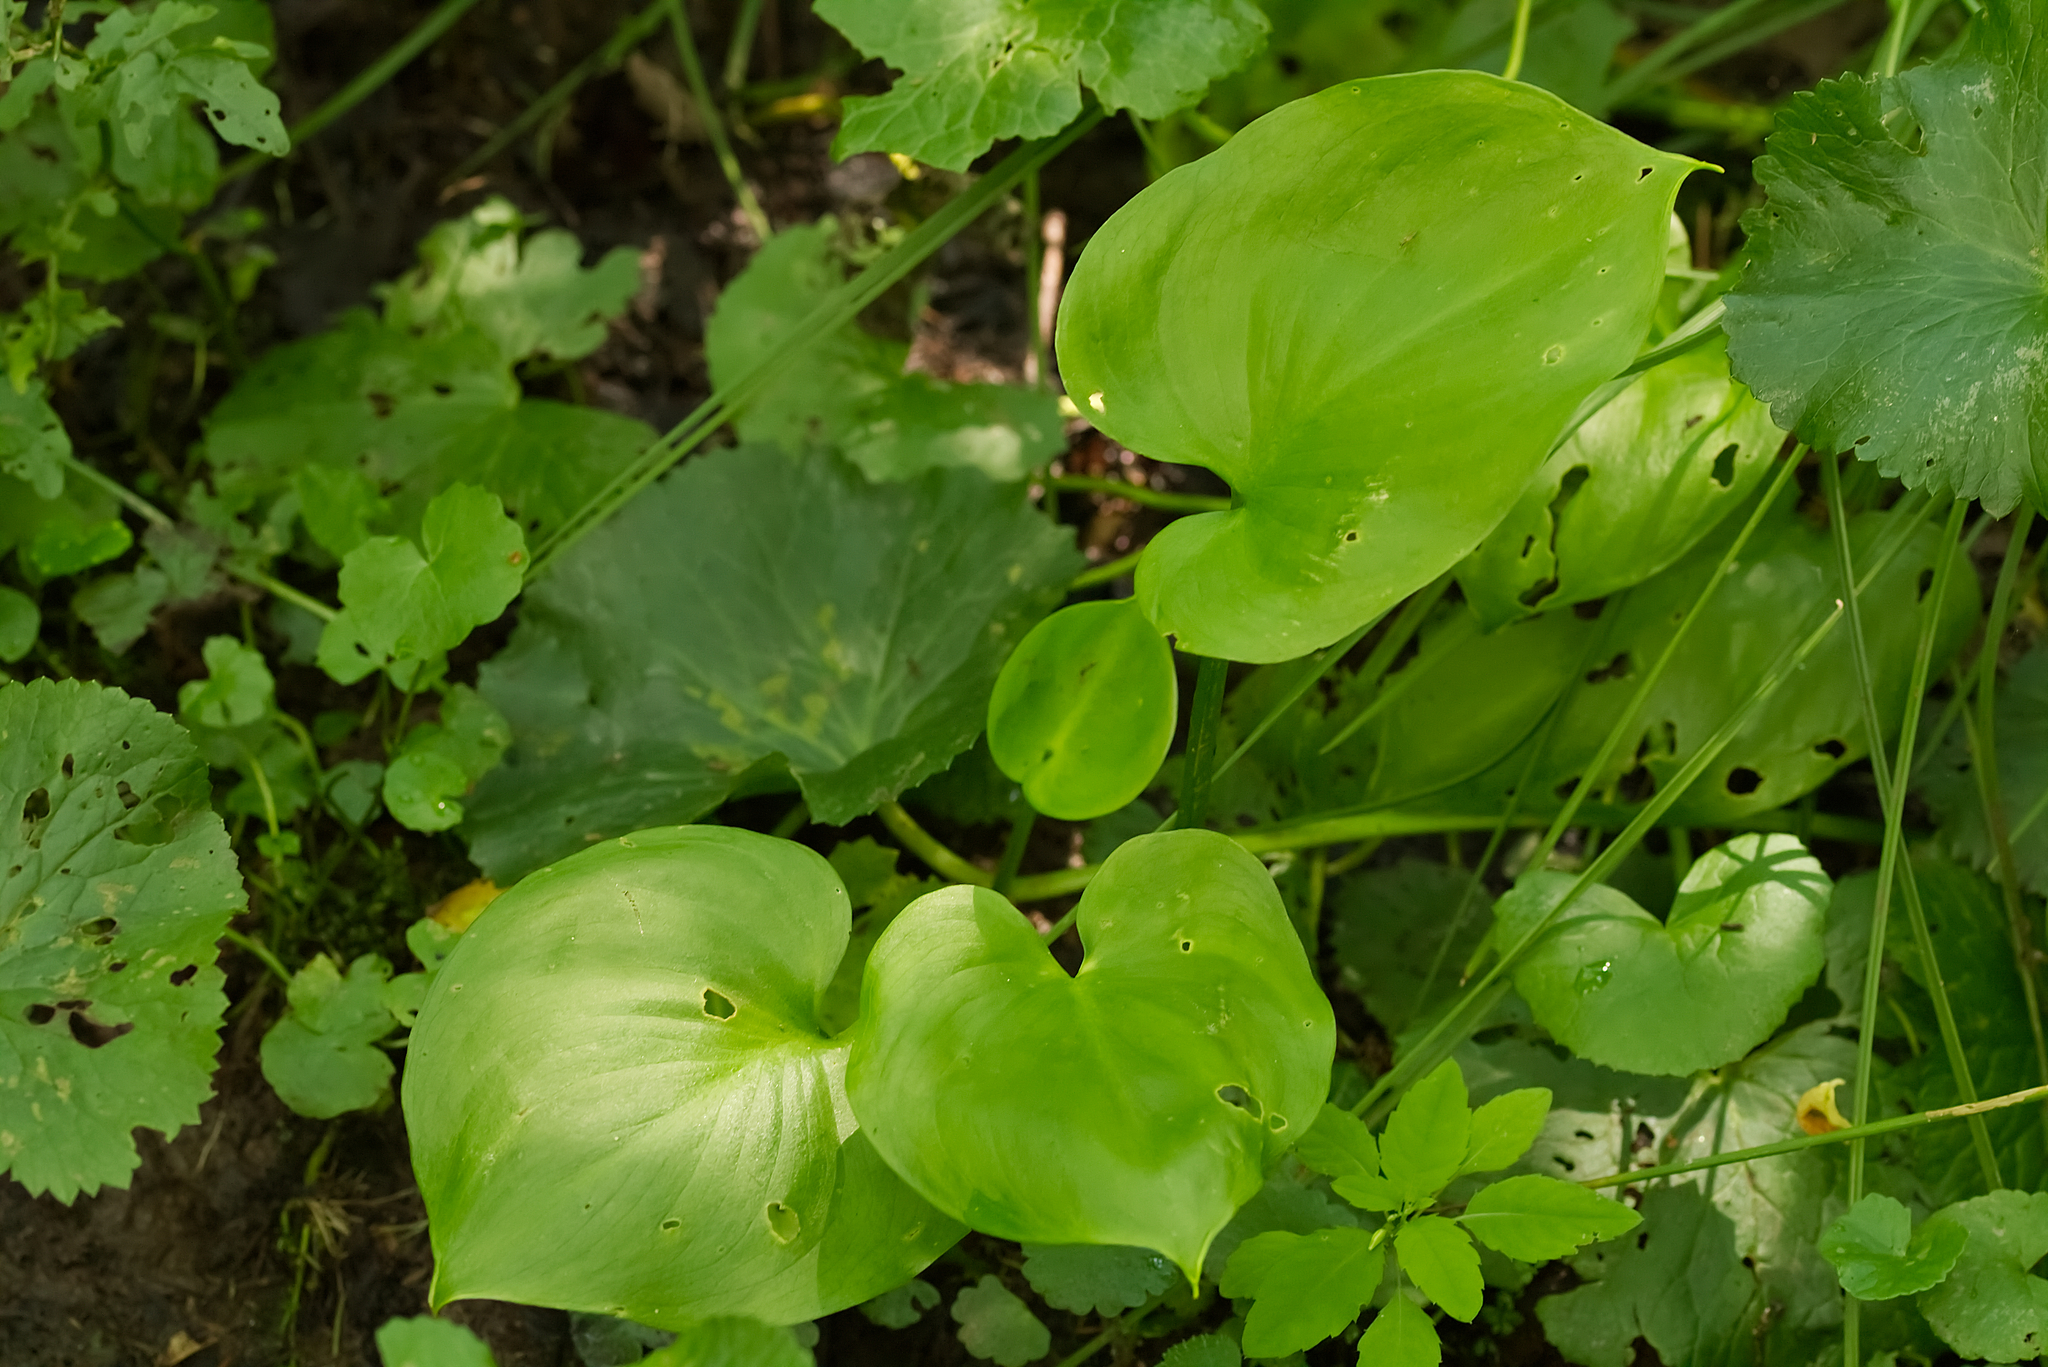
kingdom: Plantae
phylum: Tracheophyta
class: Liliopsida
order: Alismatales
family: Araceae
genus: Calla
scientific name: Calla palustris
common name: Bog arum
